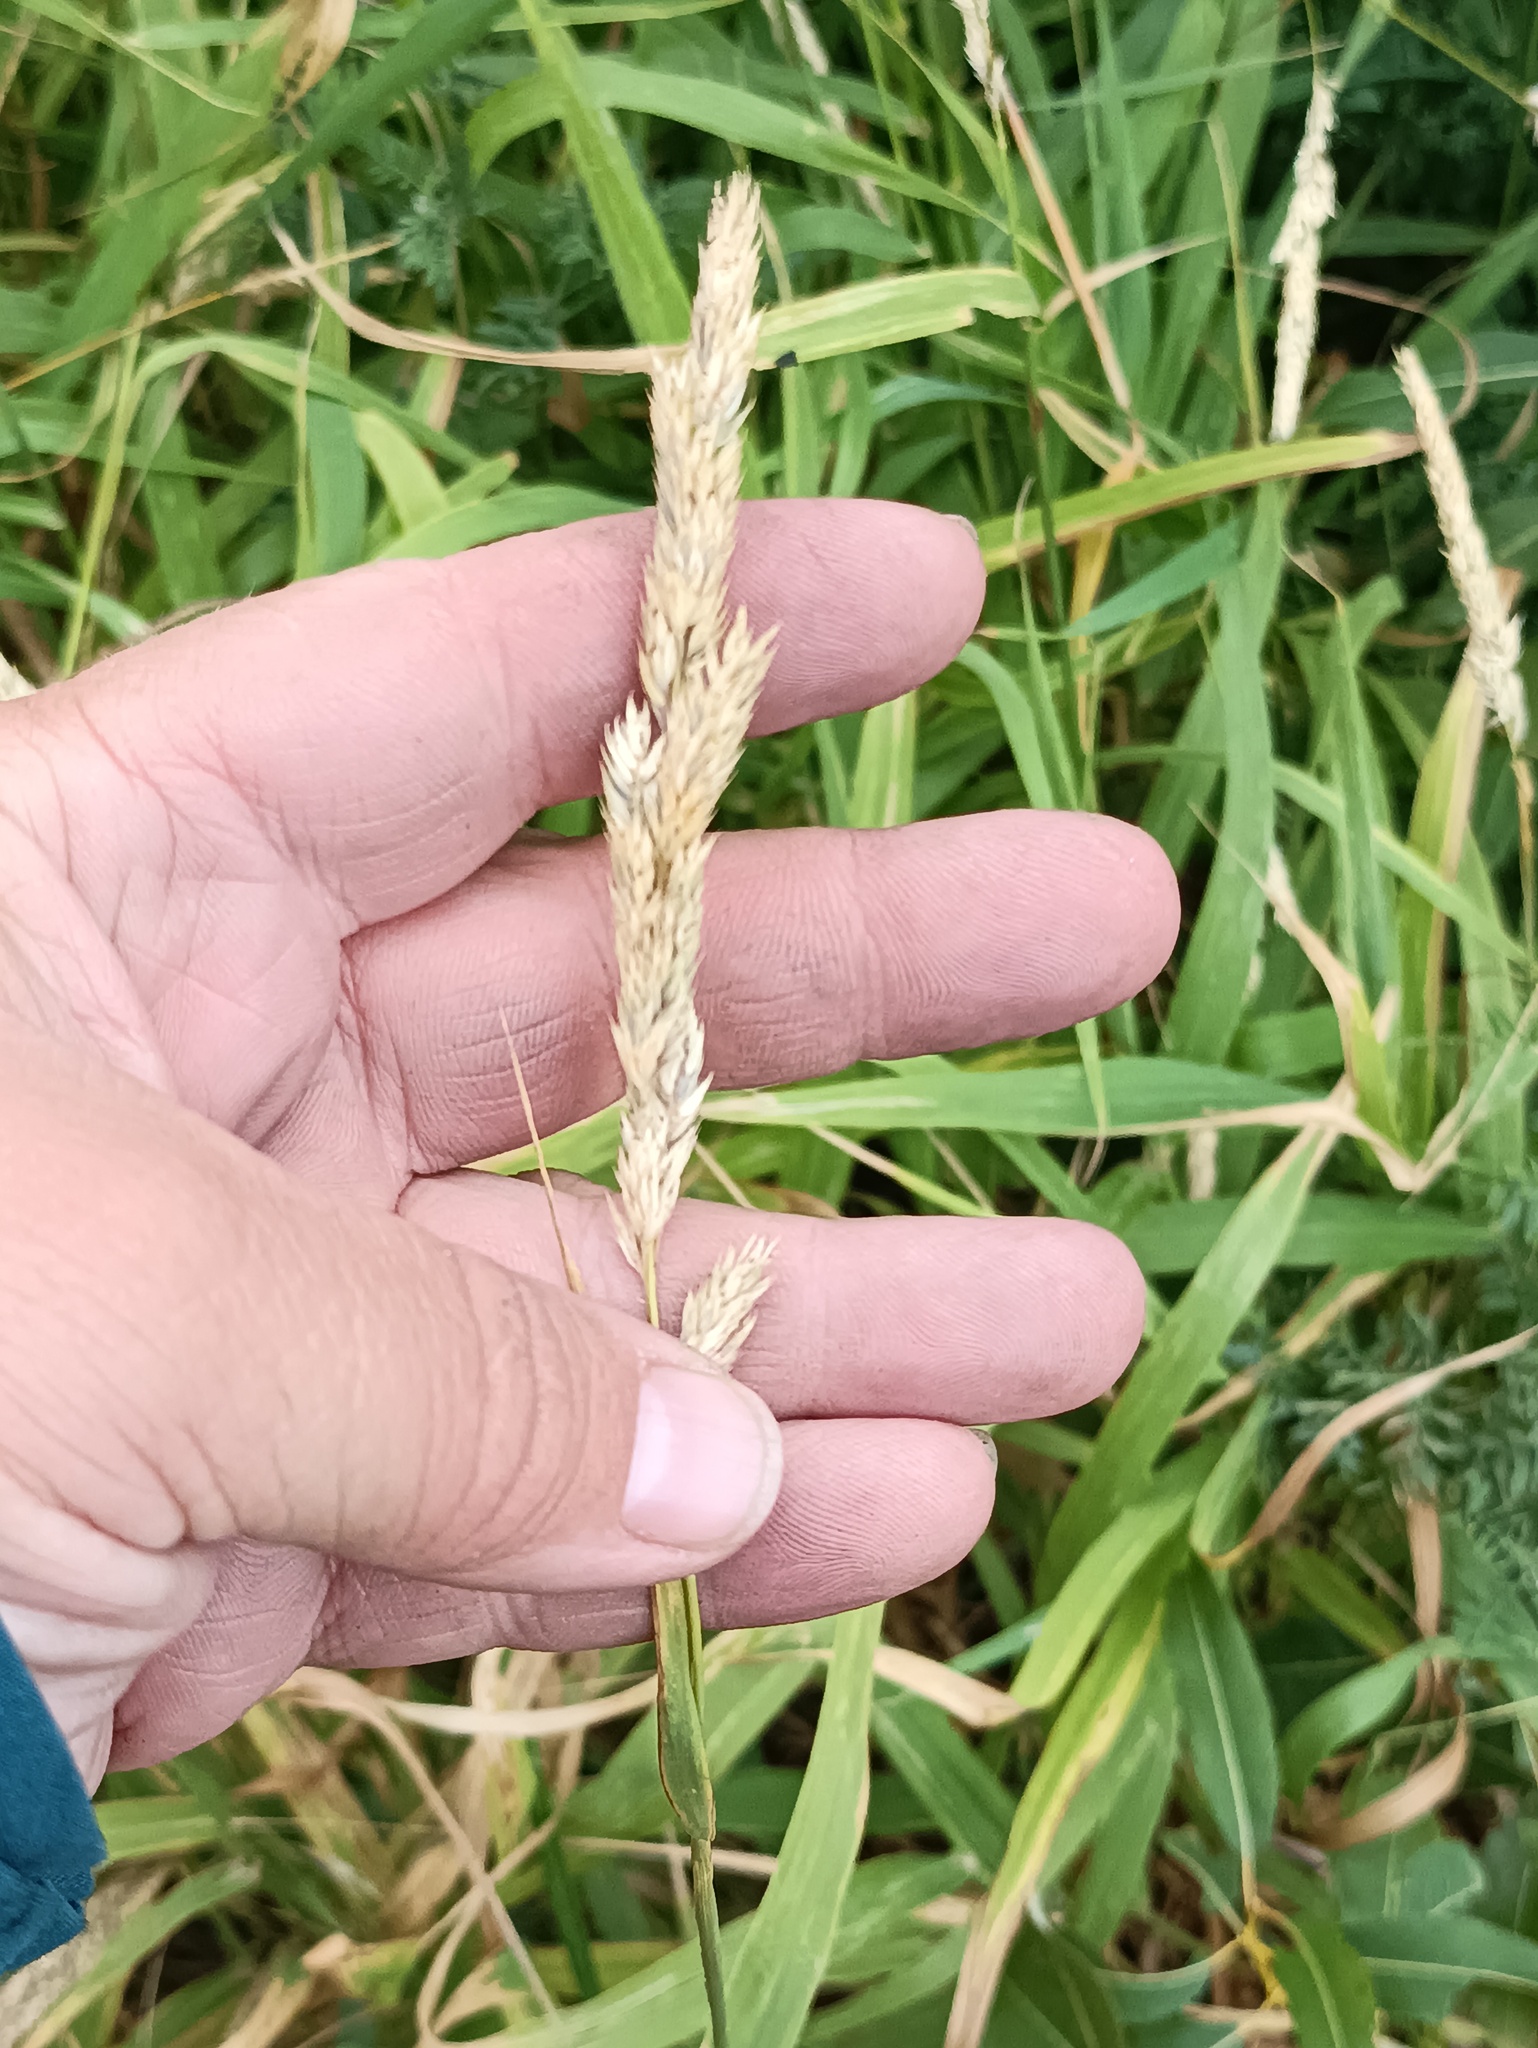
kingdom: Plantae
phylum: Tracheophyta
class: Liliopsida
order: Poales
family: Poaceae
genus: Phalaris
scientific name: Phalaris arundinacea
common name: Reed canary-grass
